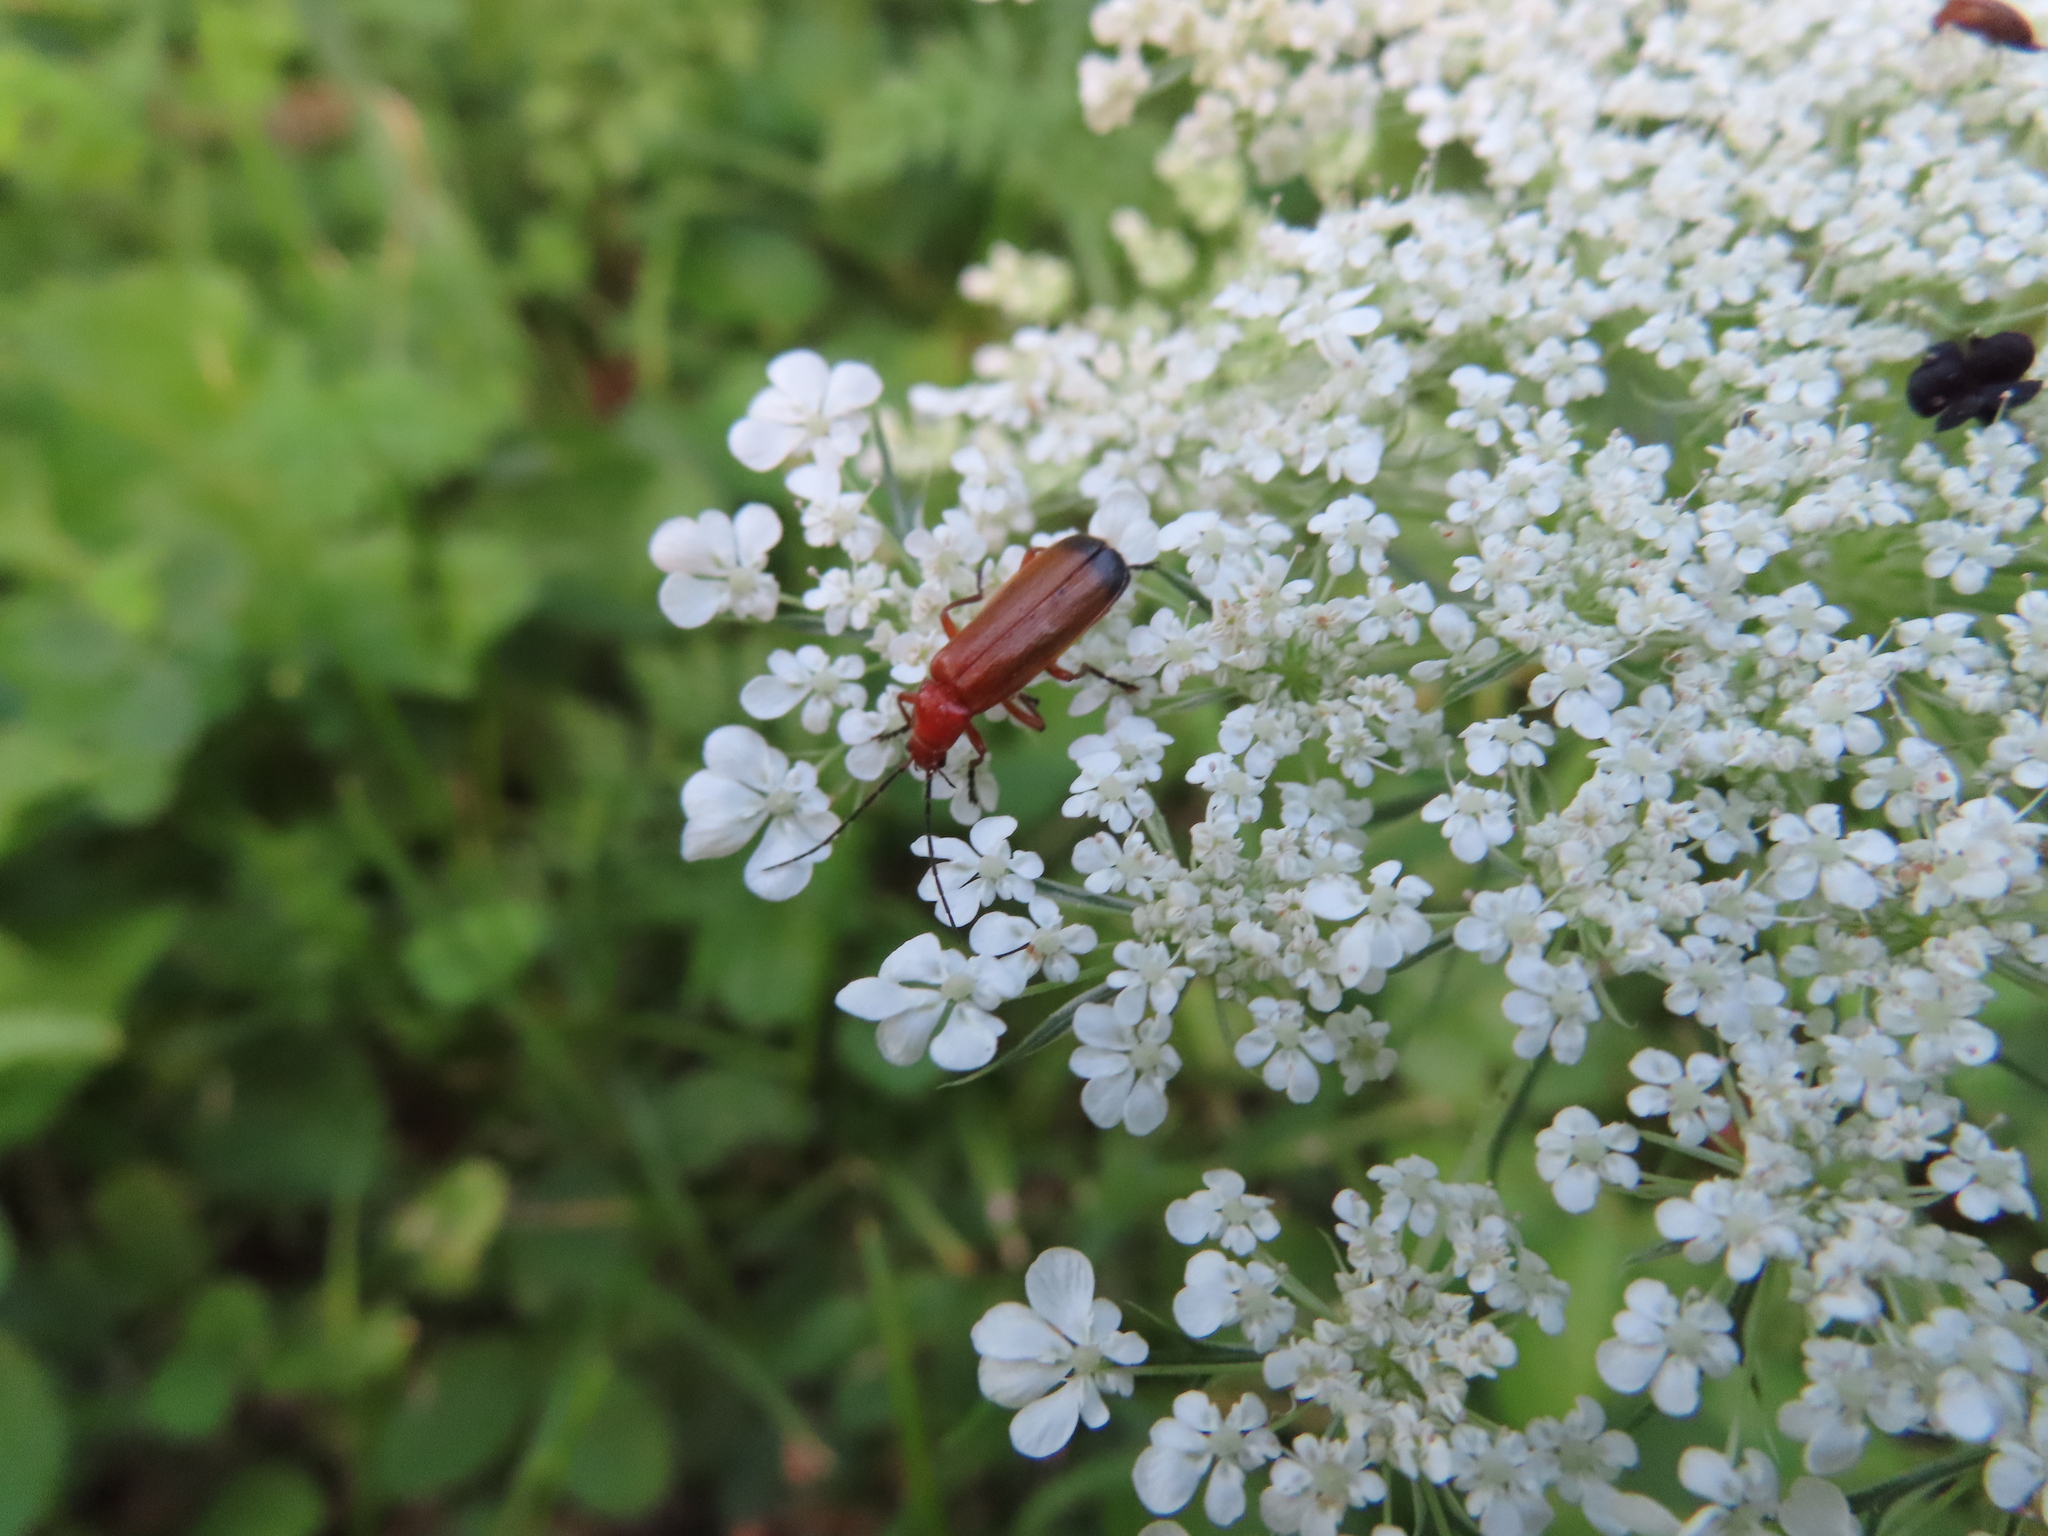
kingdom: Animalia
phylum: Arthropoda
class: Insecta
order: Coleoptera
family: Cantharidae
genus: Rhagonycha
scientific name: Rhagonycha fulva
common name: Common red soldier beetle
